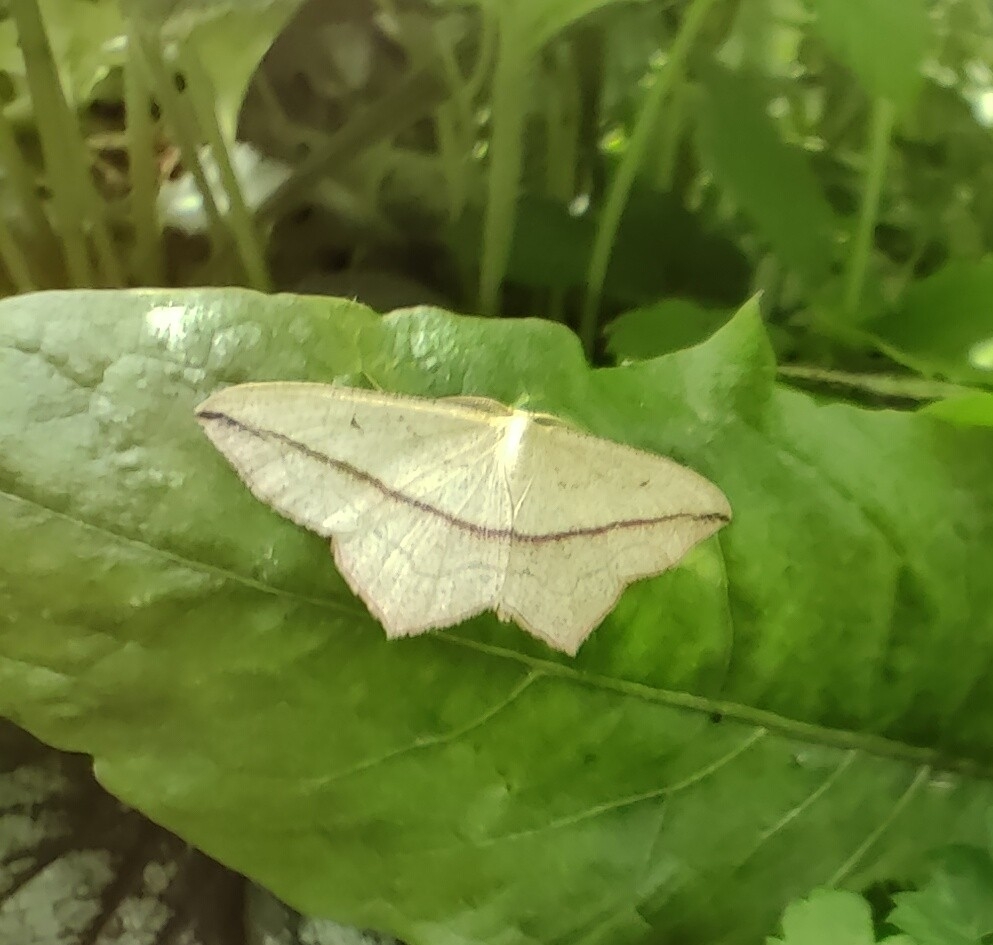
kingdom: Animalia
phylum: Arthropoda
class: Insecta
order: Lepidoptera
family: Geometridae
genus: Timandra
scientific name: Timandra comae
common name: Blood-vein
